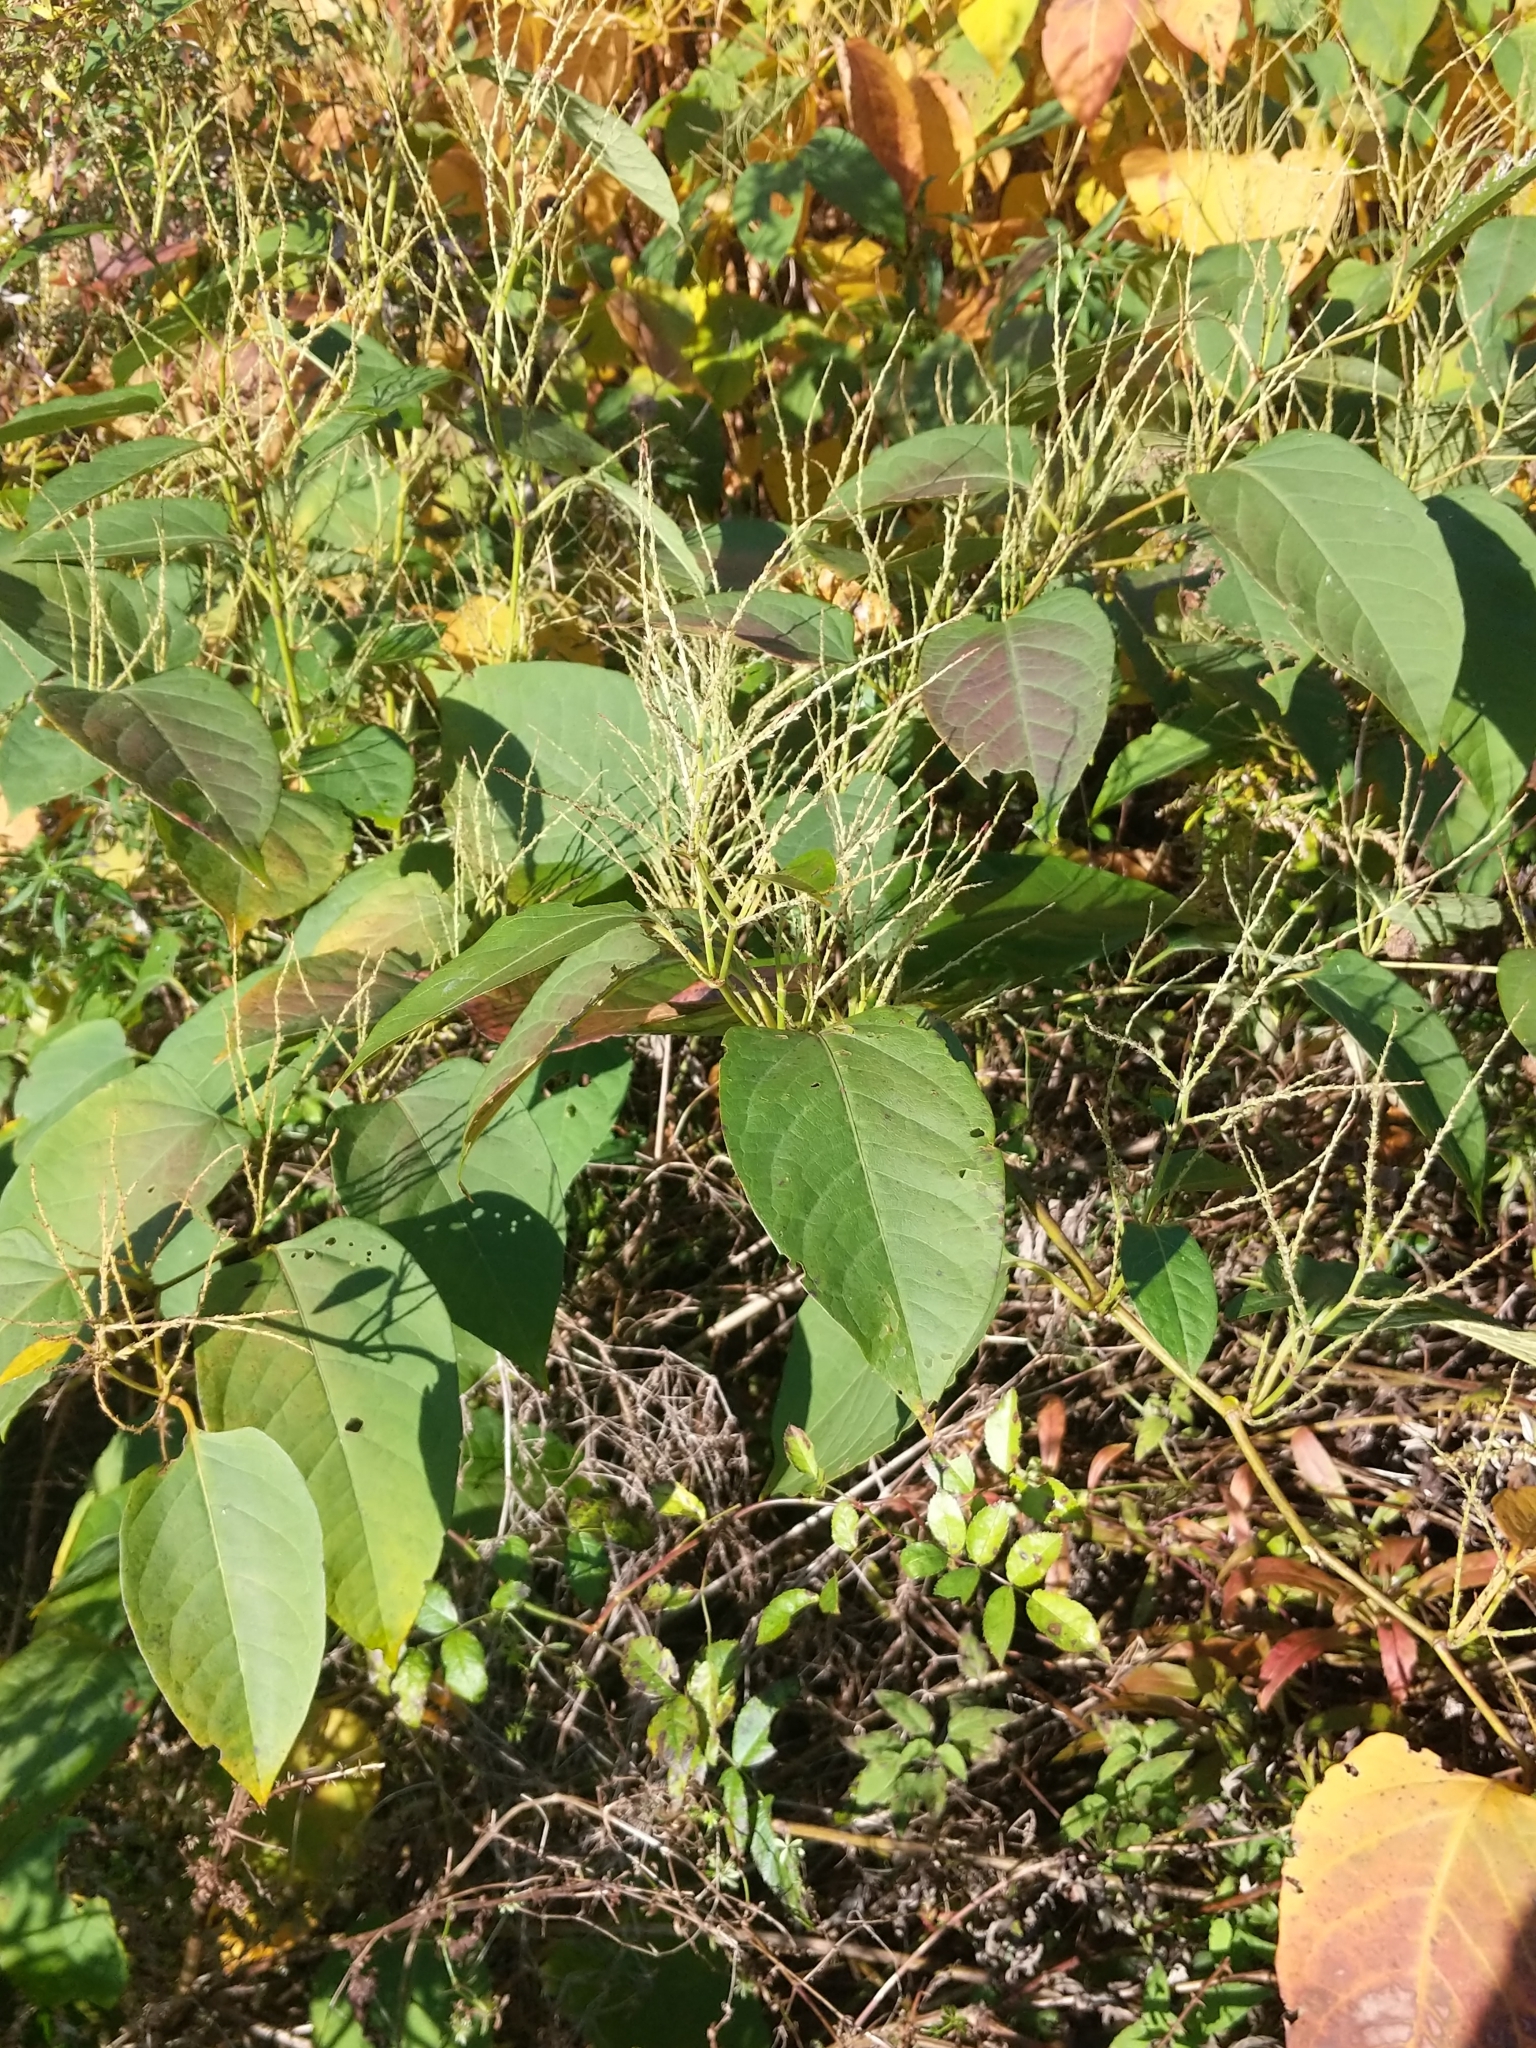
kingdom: Plantae
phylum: Tracheophyta
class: Magnoliopsida
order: Caryophyllales
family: Polygonaceae
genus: Reynoutria
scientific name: Reynoutria japonica
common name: Japanese knotweed
